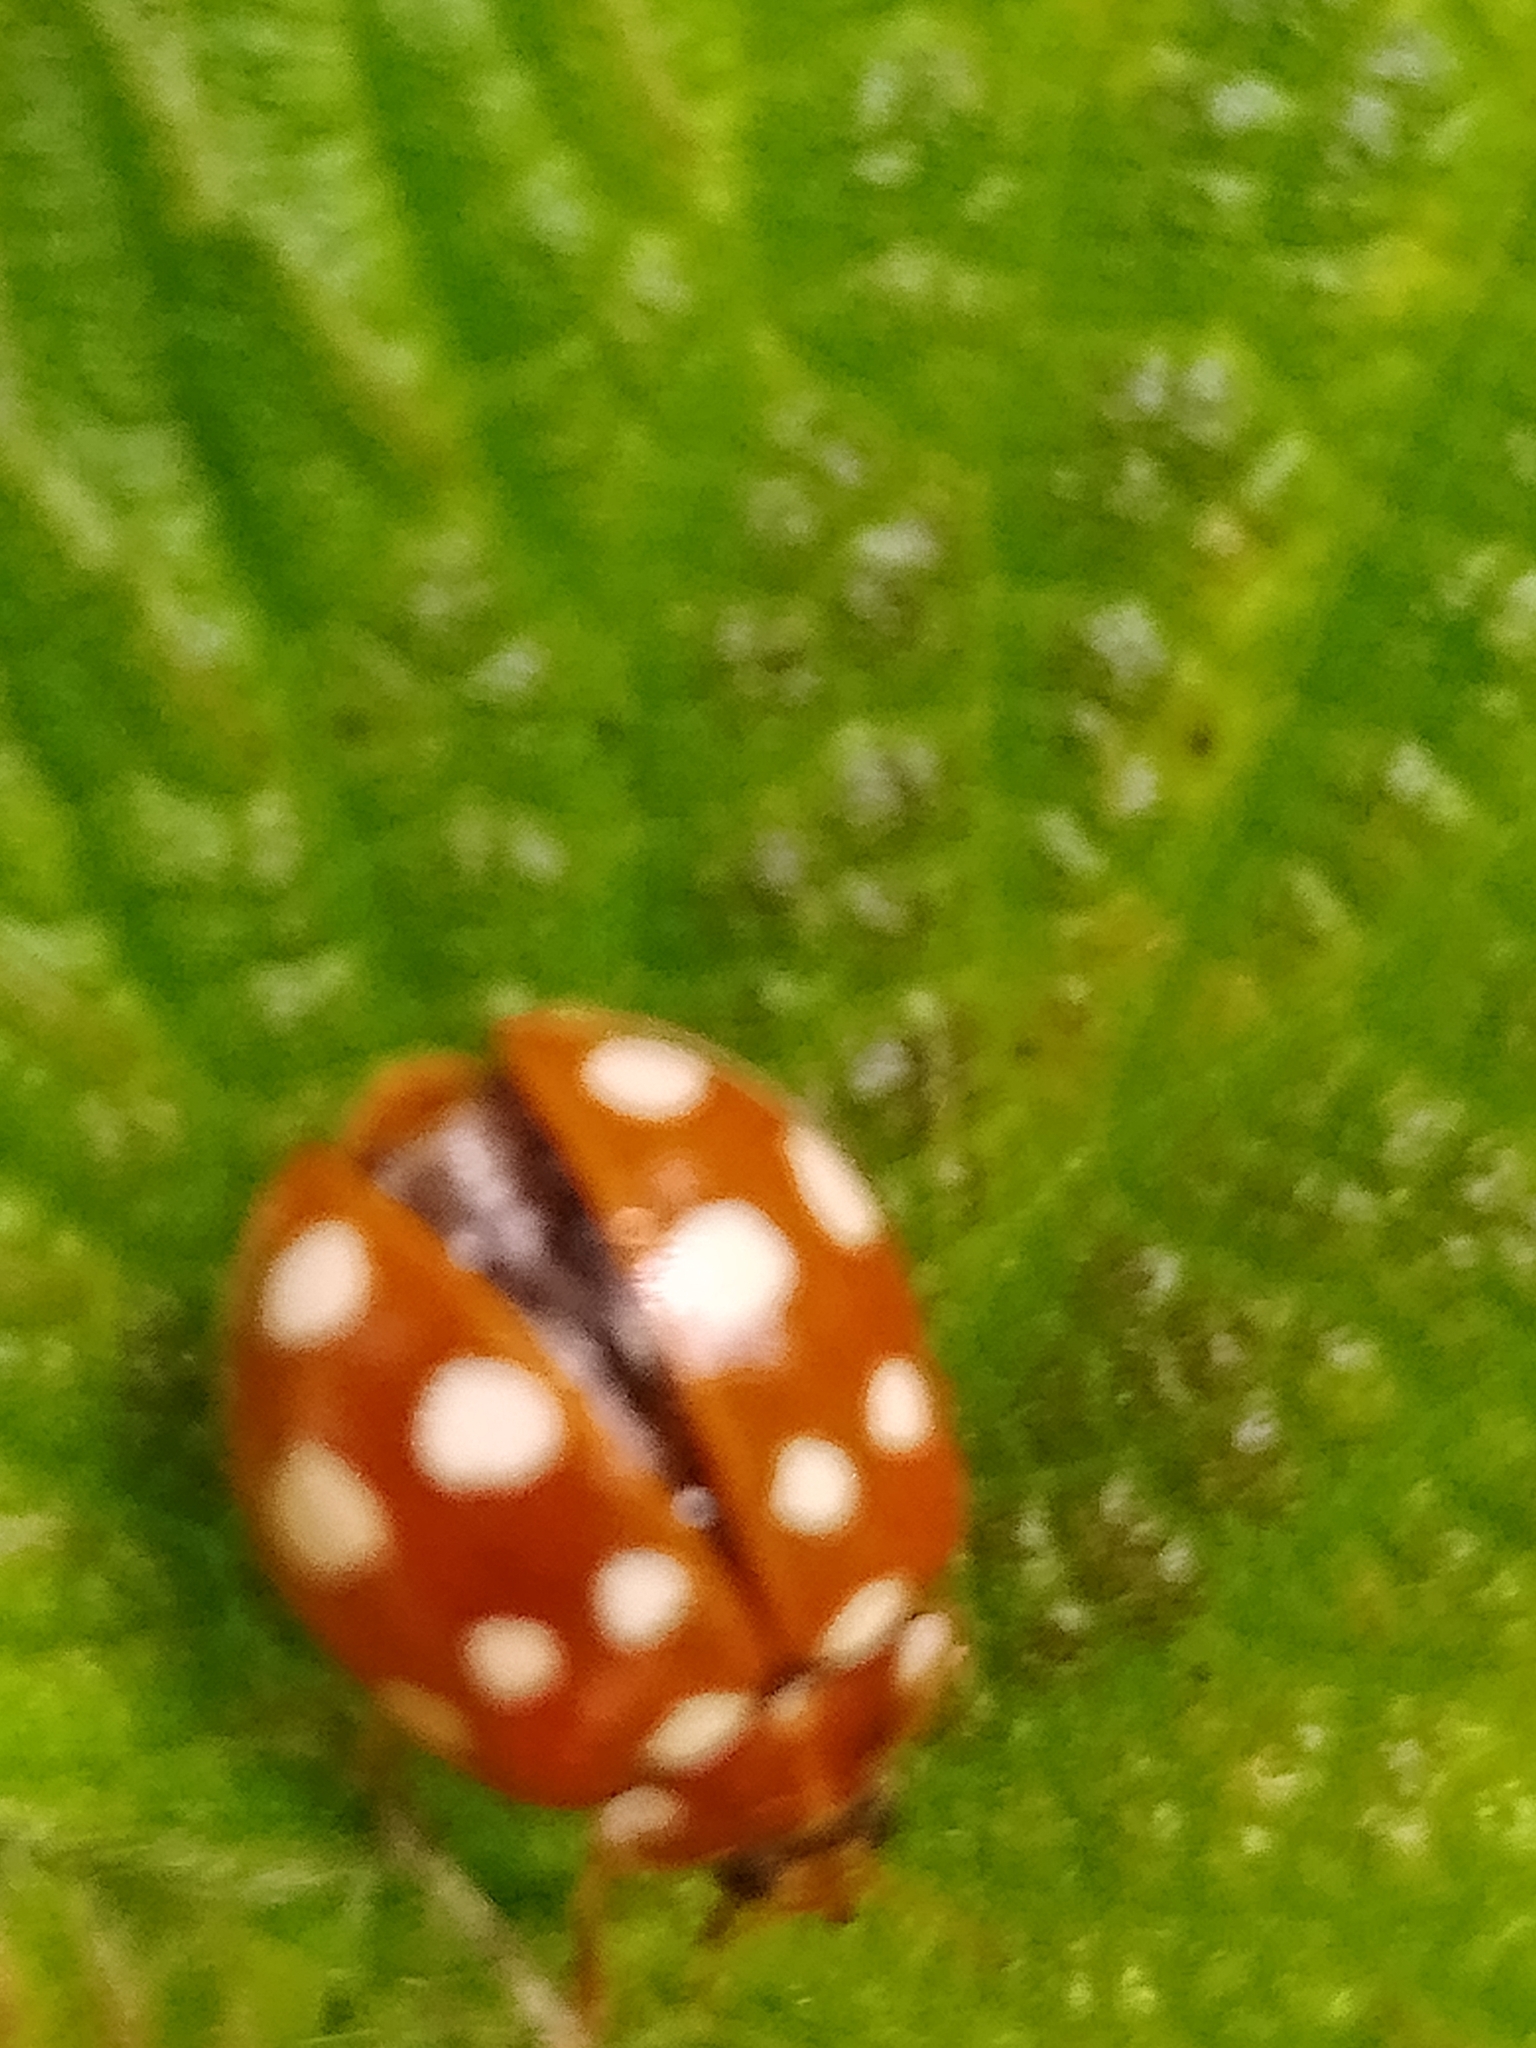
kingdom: Animalia
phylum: Arthropoda
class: Insecta
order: Coleoptera
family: Coccinellidae
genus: Calvia
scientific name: Calvia quatuordecimguttata
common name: Cream-spot ladybird
